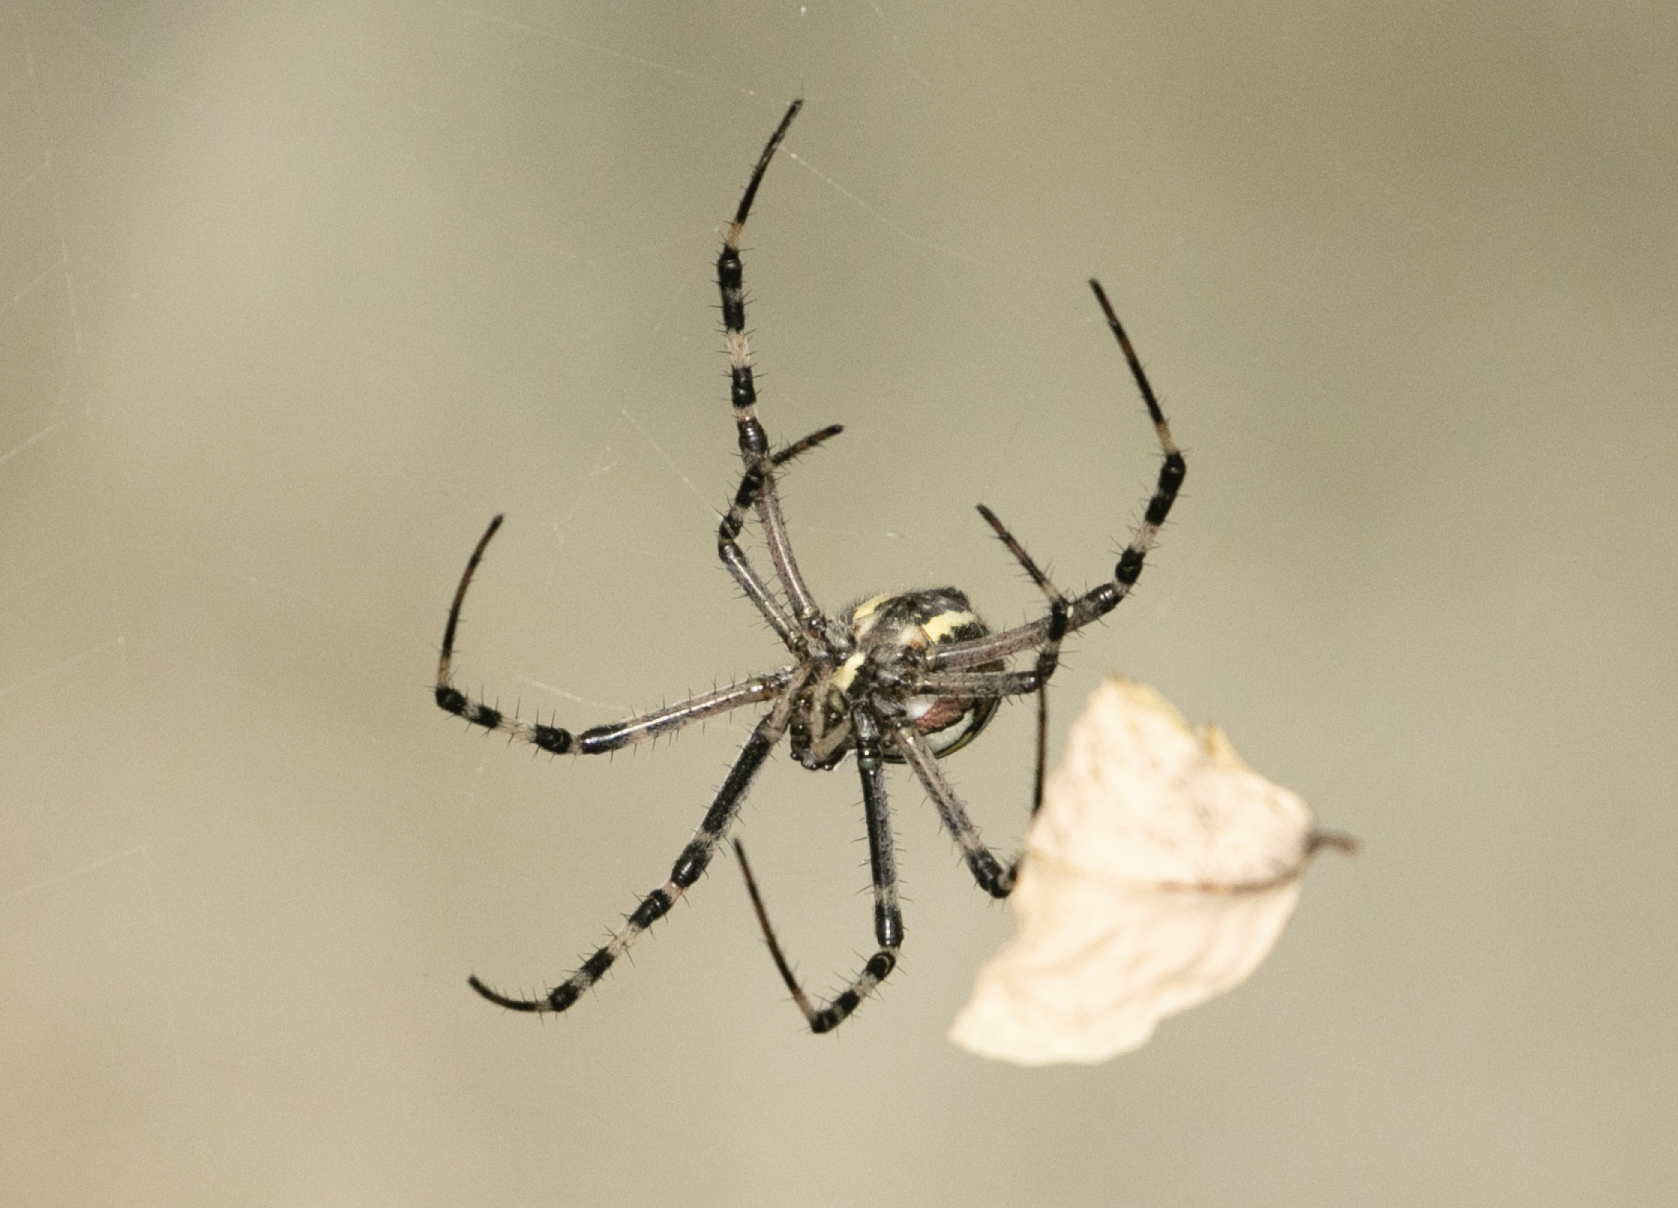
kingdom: Animalia
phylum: Arthropoda
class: Arachnida
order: Araneae
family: Araneidae
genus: Argiope
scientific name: Argiope bruennichi
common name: Wasp spider
